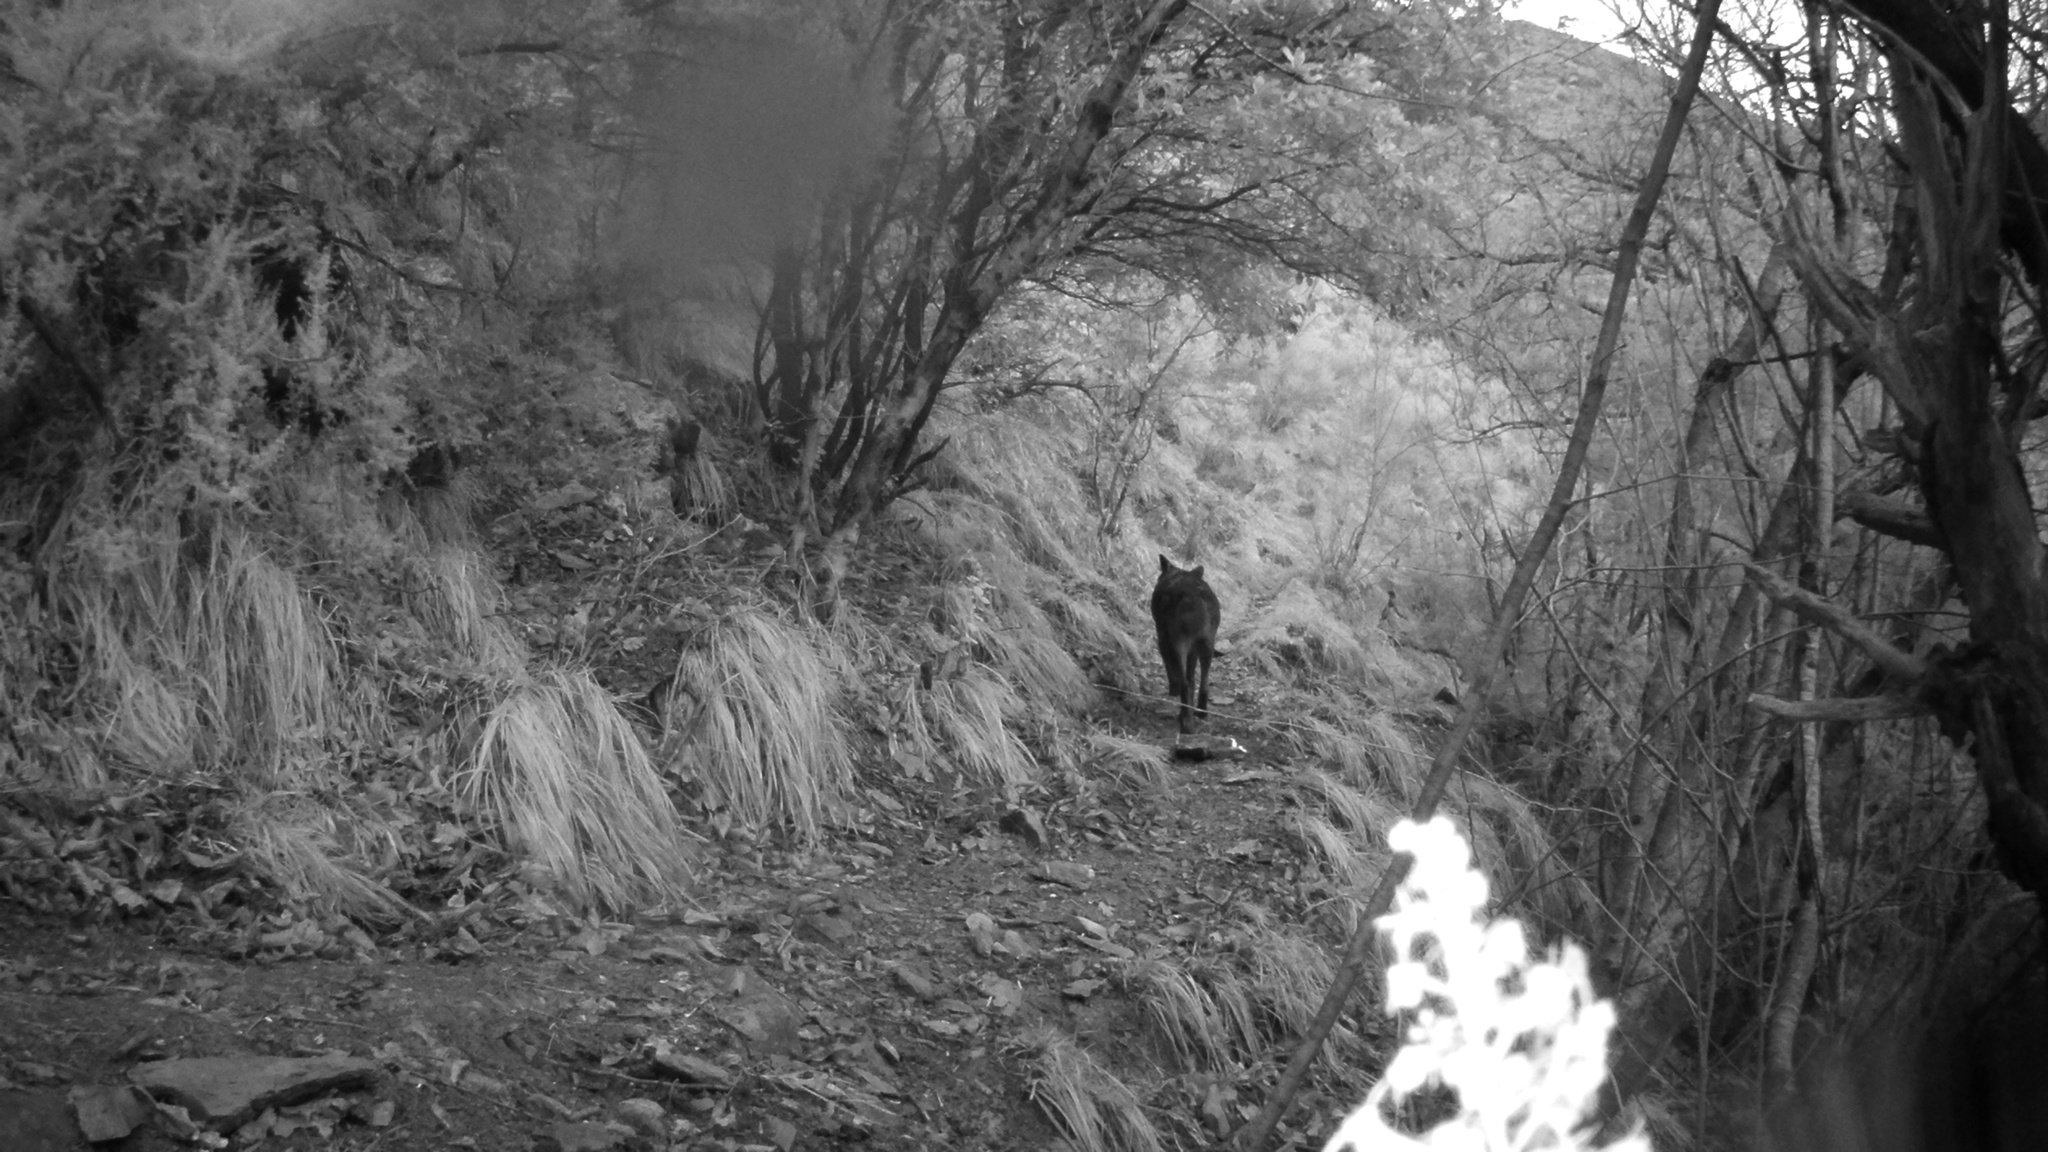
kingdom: Animalia
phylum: Chordata
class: Mammalia
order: Carnivora
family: Canidae
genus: Canis
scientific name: Canis lupus
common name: Gray wolf
